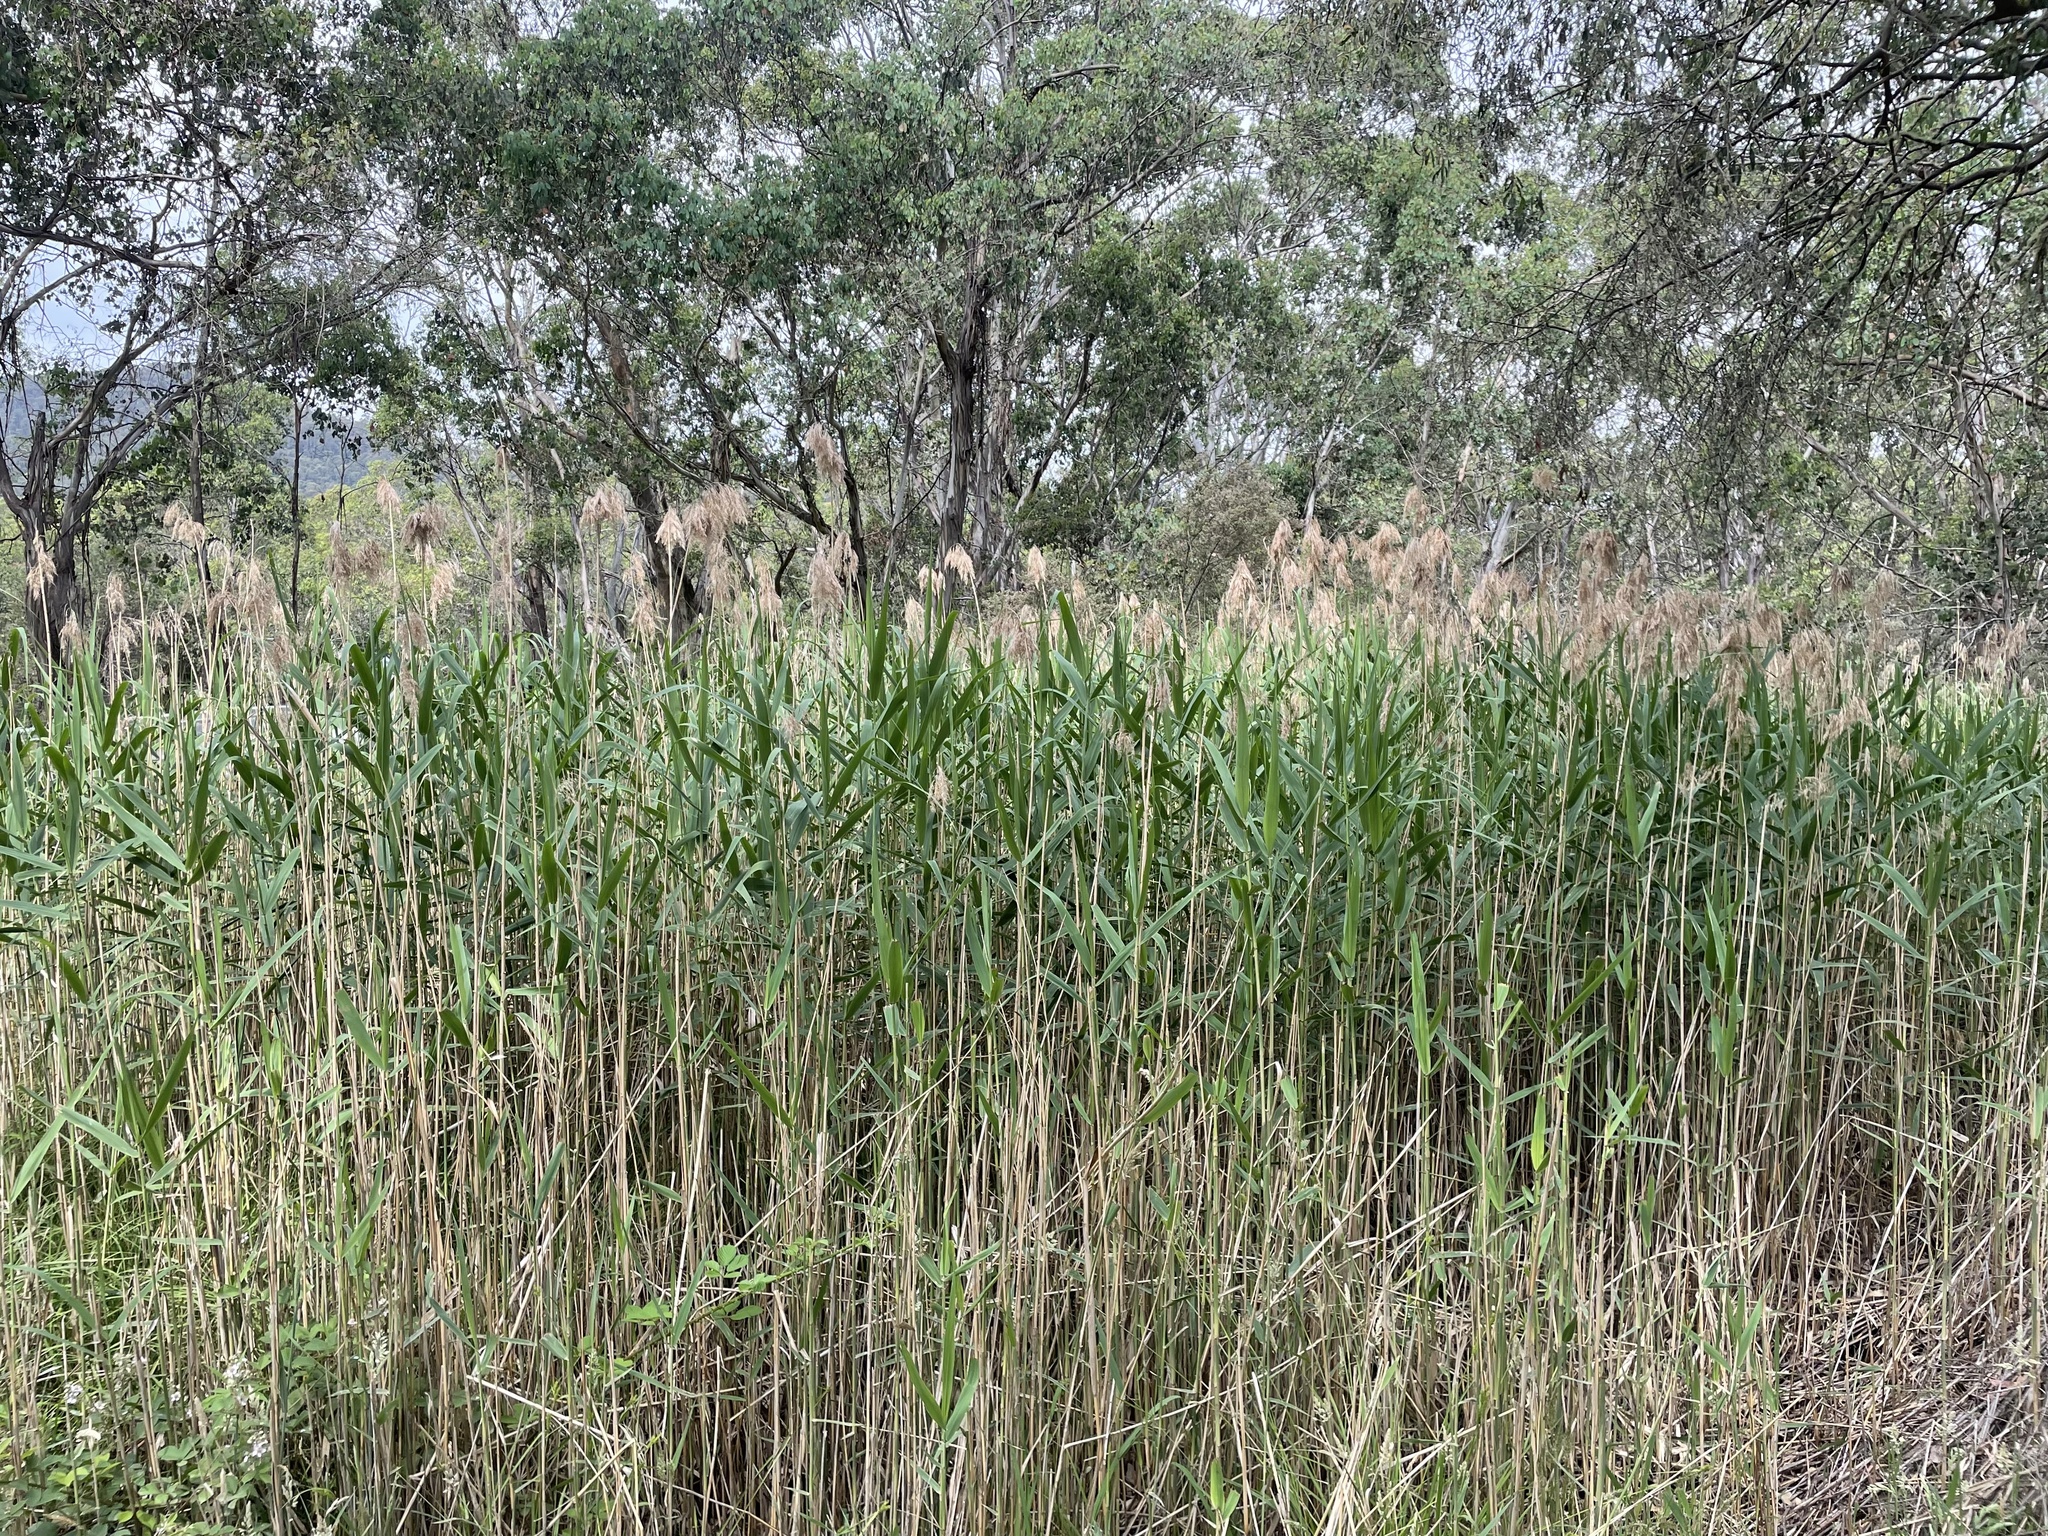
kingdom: Plantae
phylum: Tracheophyta
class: Liliopsida
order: Poales
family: Poaceae
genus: Phragmites
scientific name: Phragmites australis
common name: Common reed
